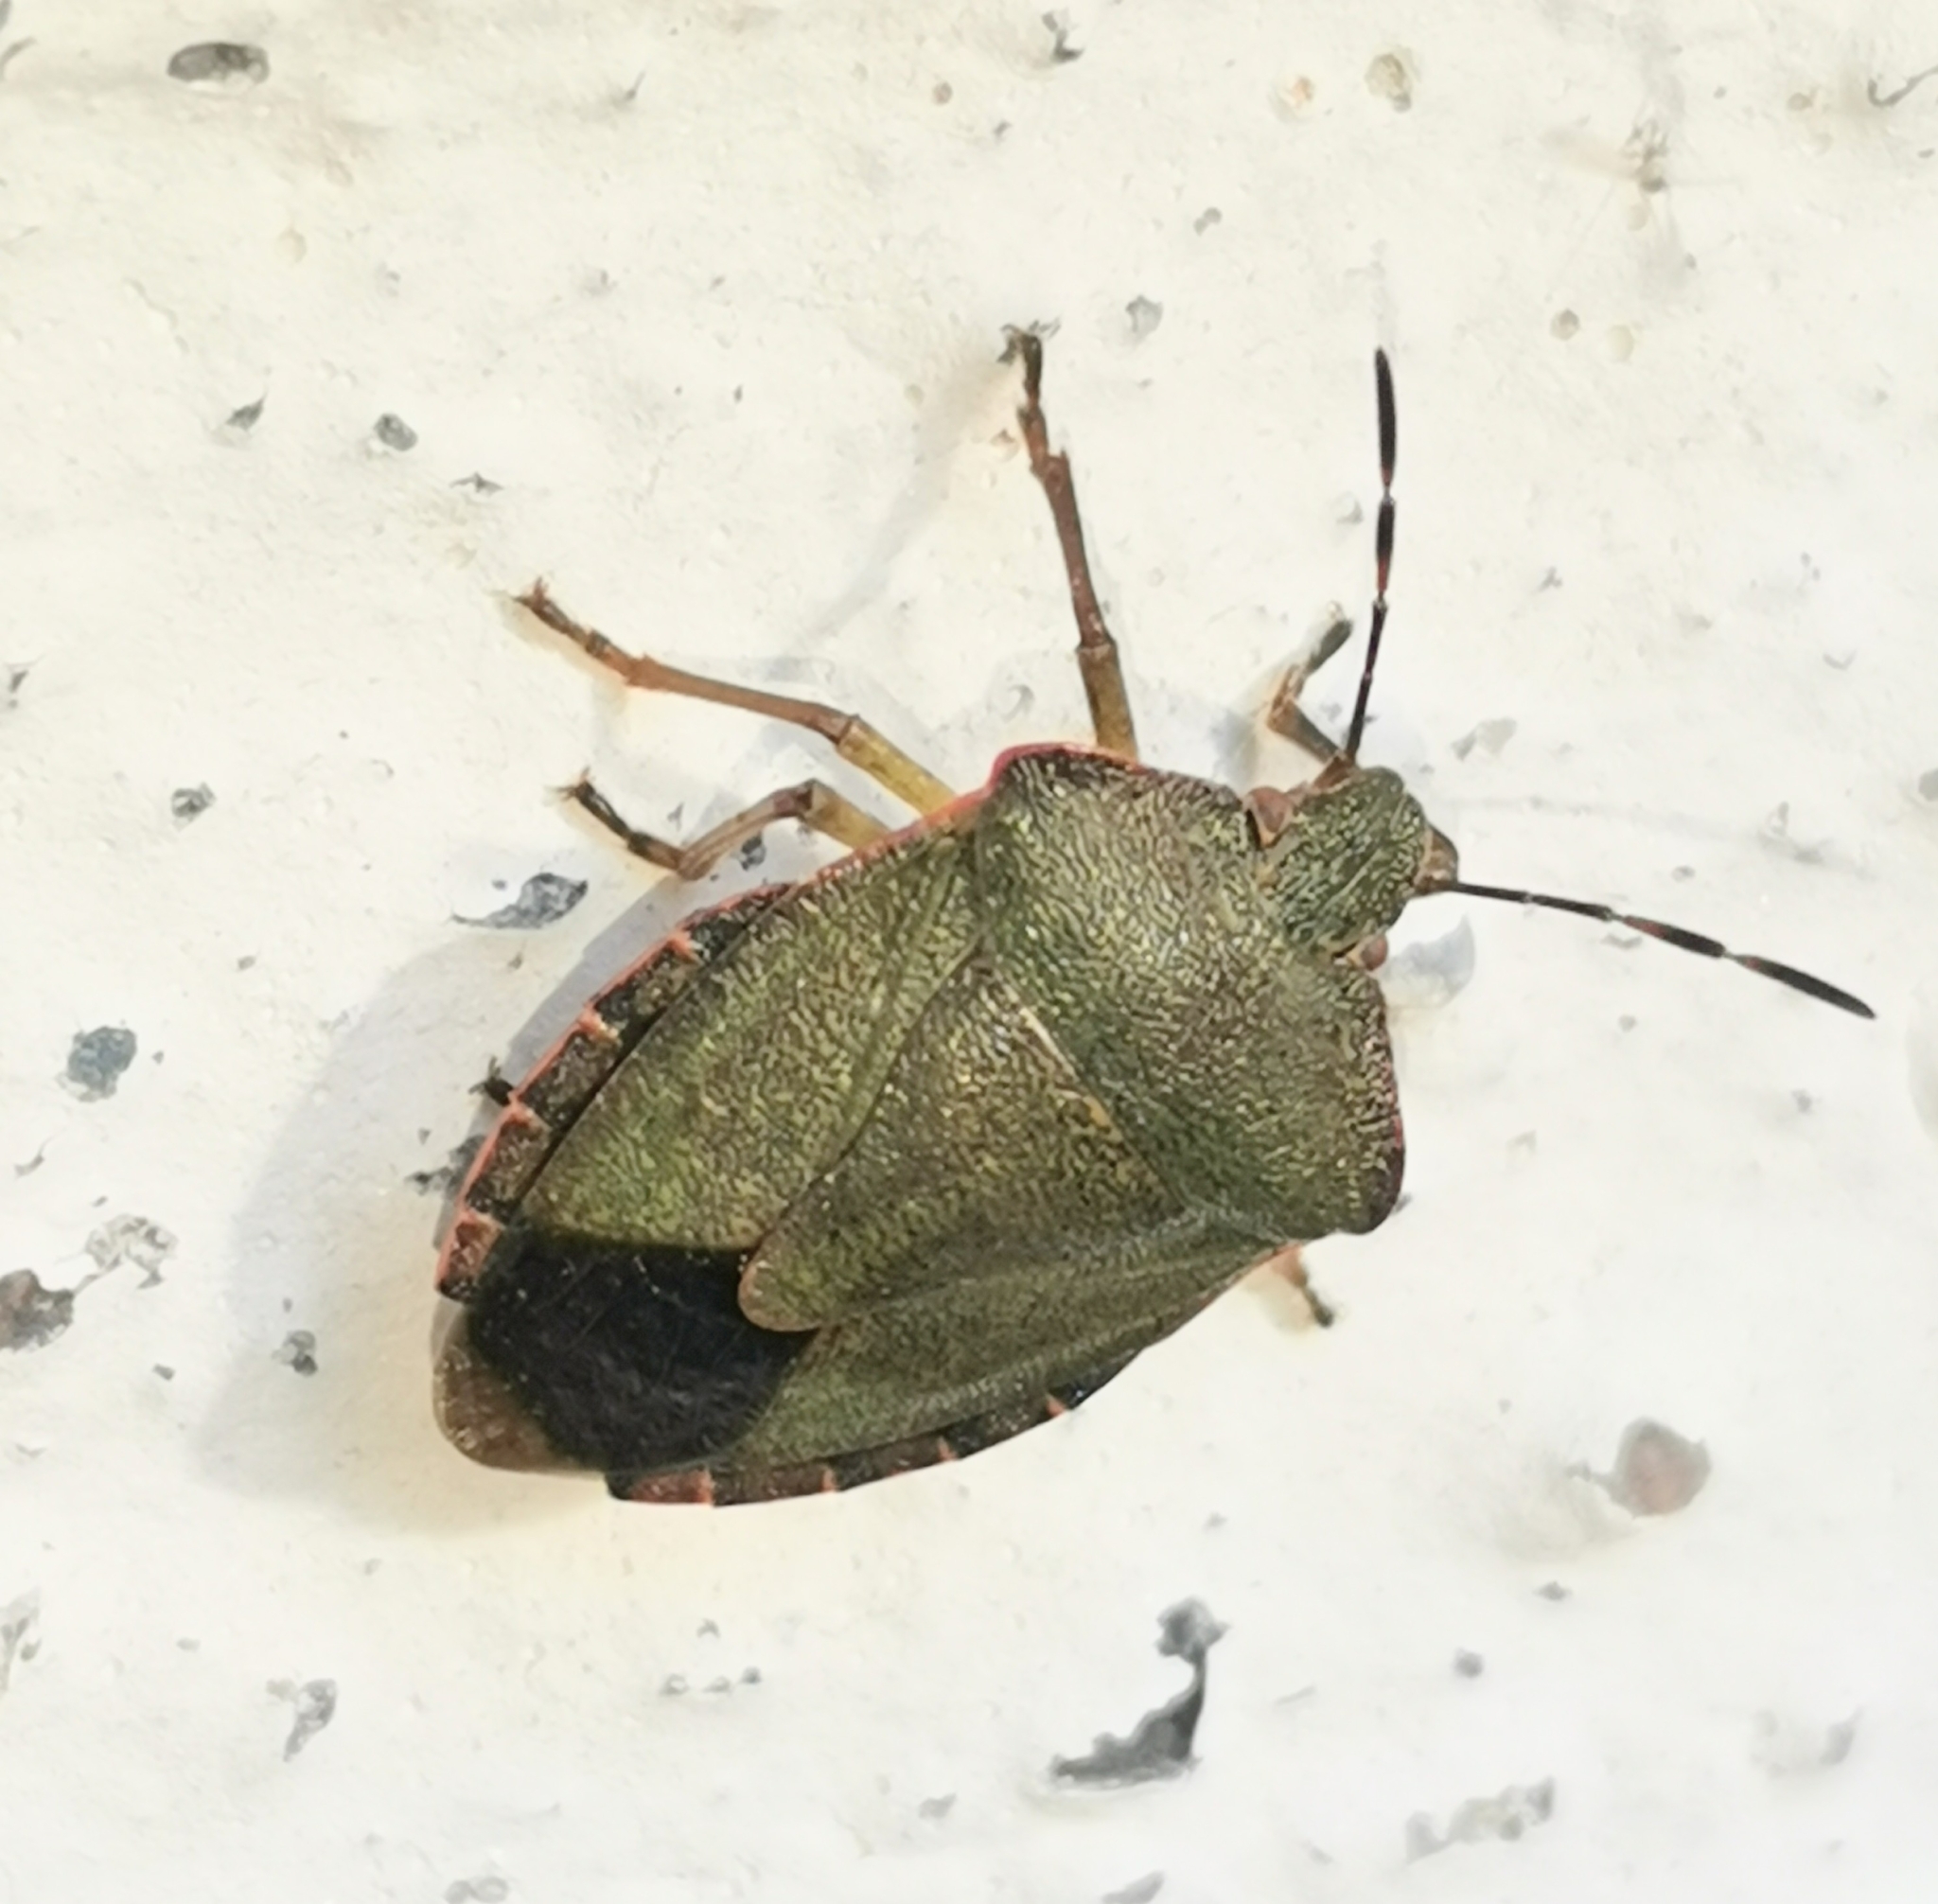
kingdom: Animalia
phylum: Arthropoda
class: Insecta
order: Hemiptera
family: Pentatomidae
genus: Palomena
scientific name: Palomena prasina
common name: Green shieldbug
